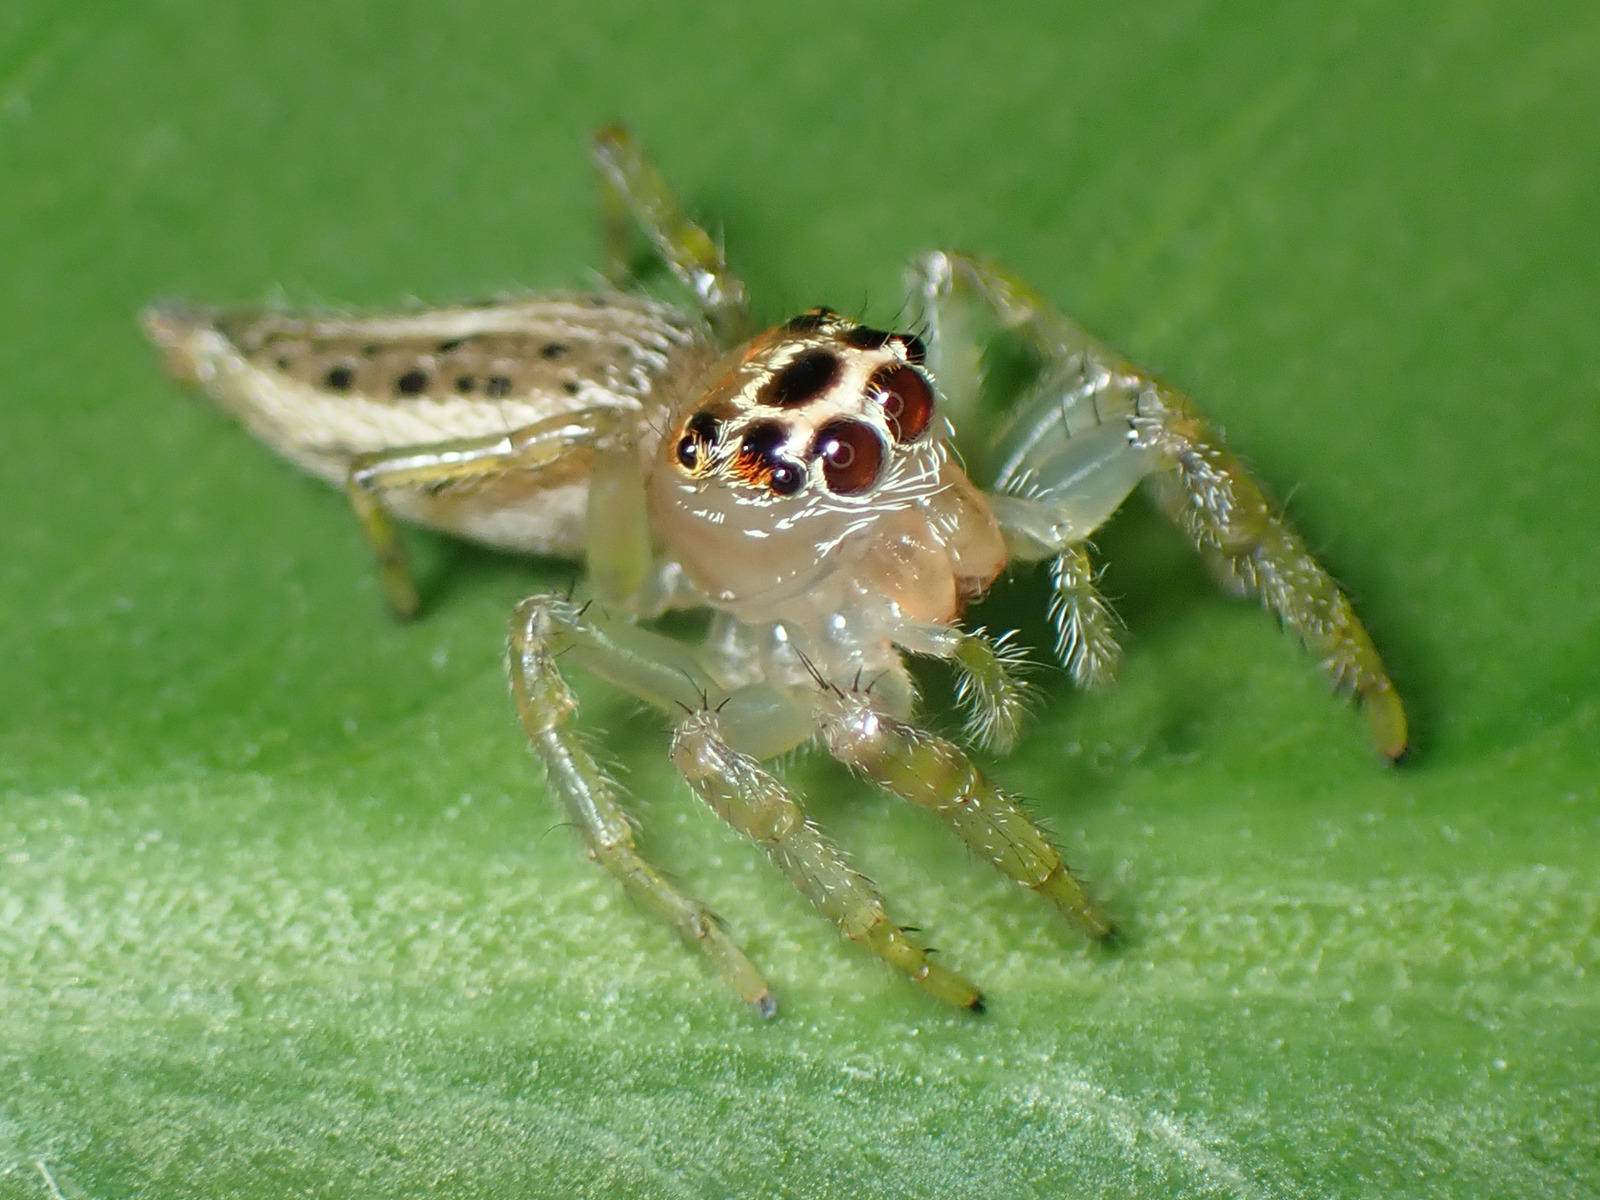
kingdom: Animalia
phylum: Arthropoda
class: Arachnida
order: Araneae
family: Salticidae
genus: Colonus
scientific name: Colonus sylvanus
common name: Jumping spiders
